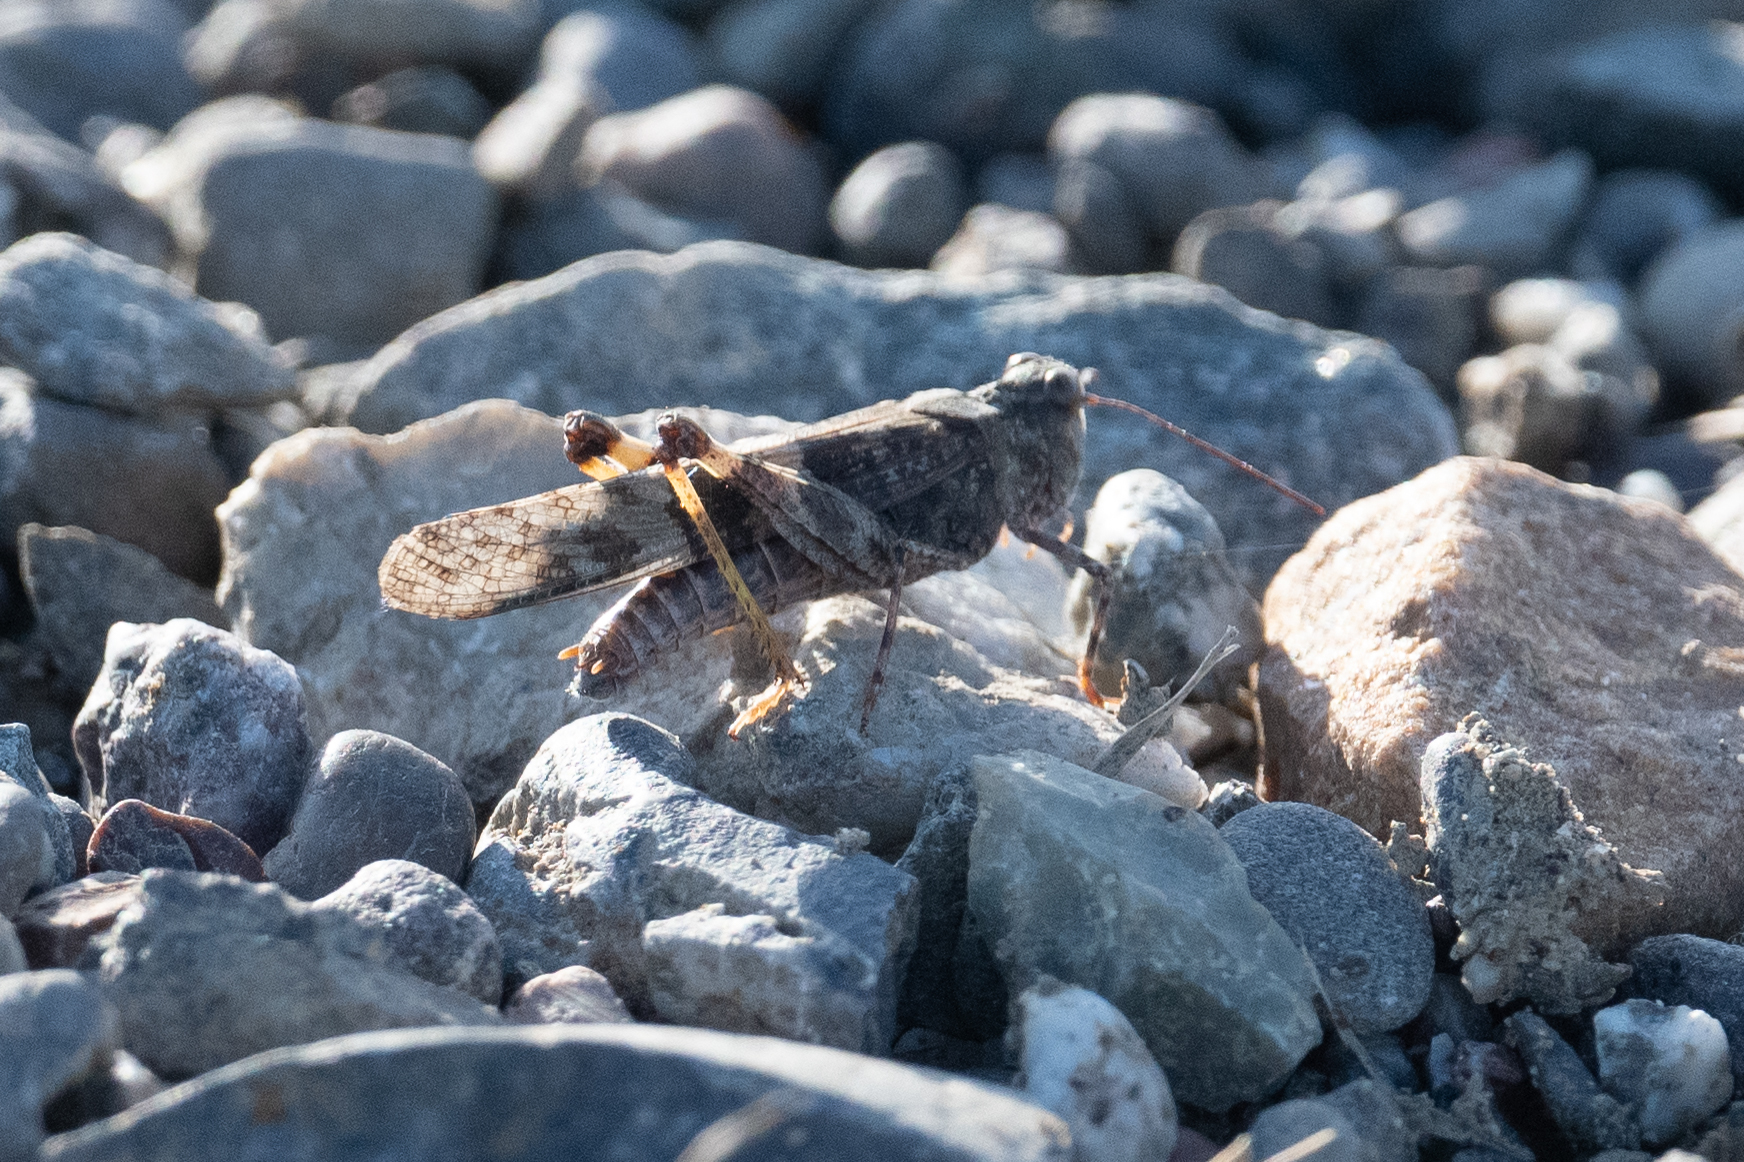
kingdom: Animalia
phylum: Arthropoda
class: Insecta
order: Orthoptera
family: Acrididae
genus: Trimerotropis
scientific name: Trimerotropis pallidipennis
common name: Pallid-winged grasshopper
